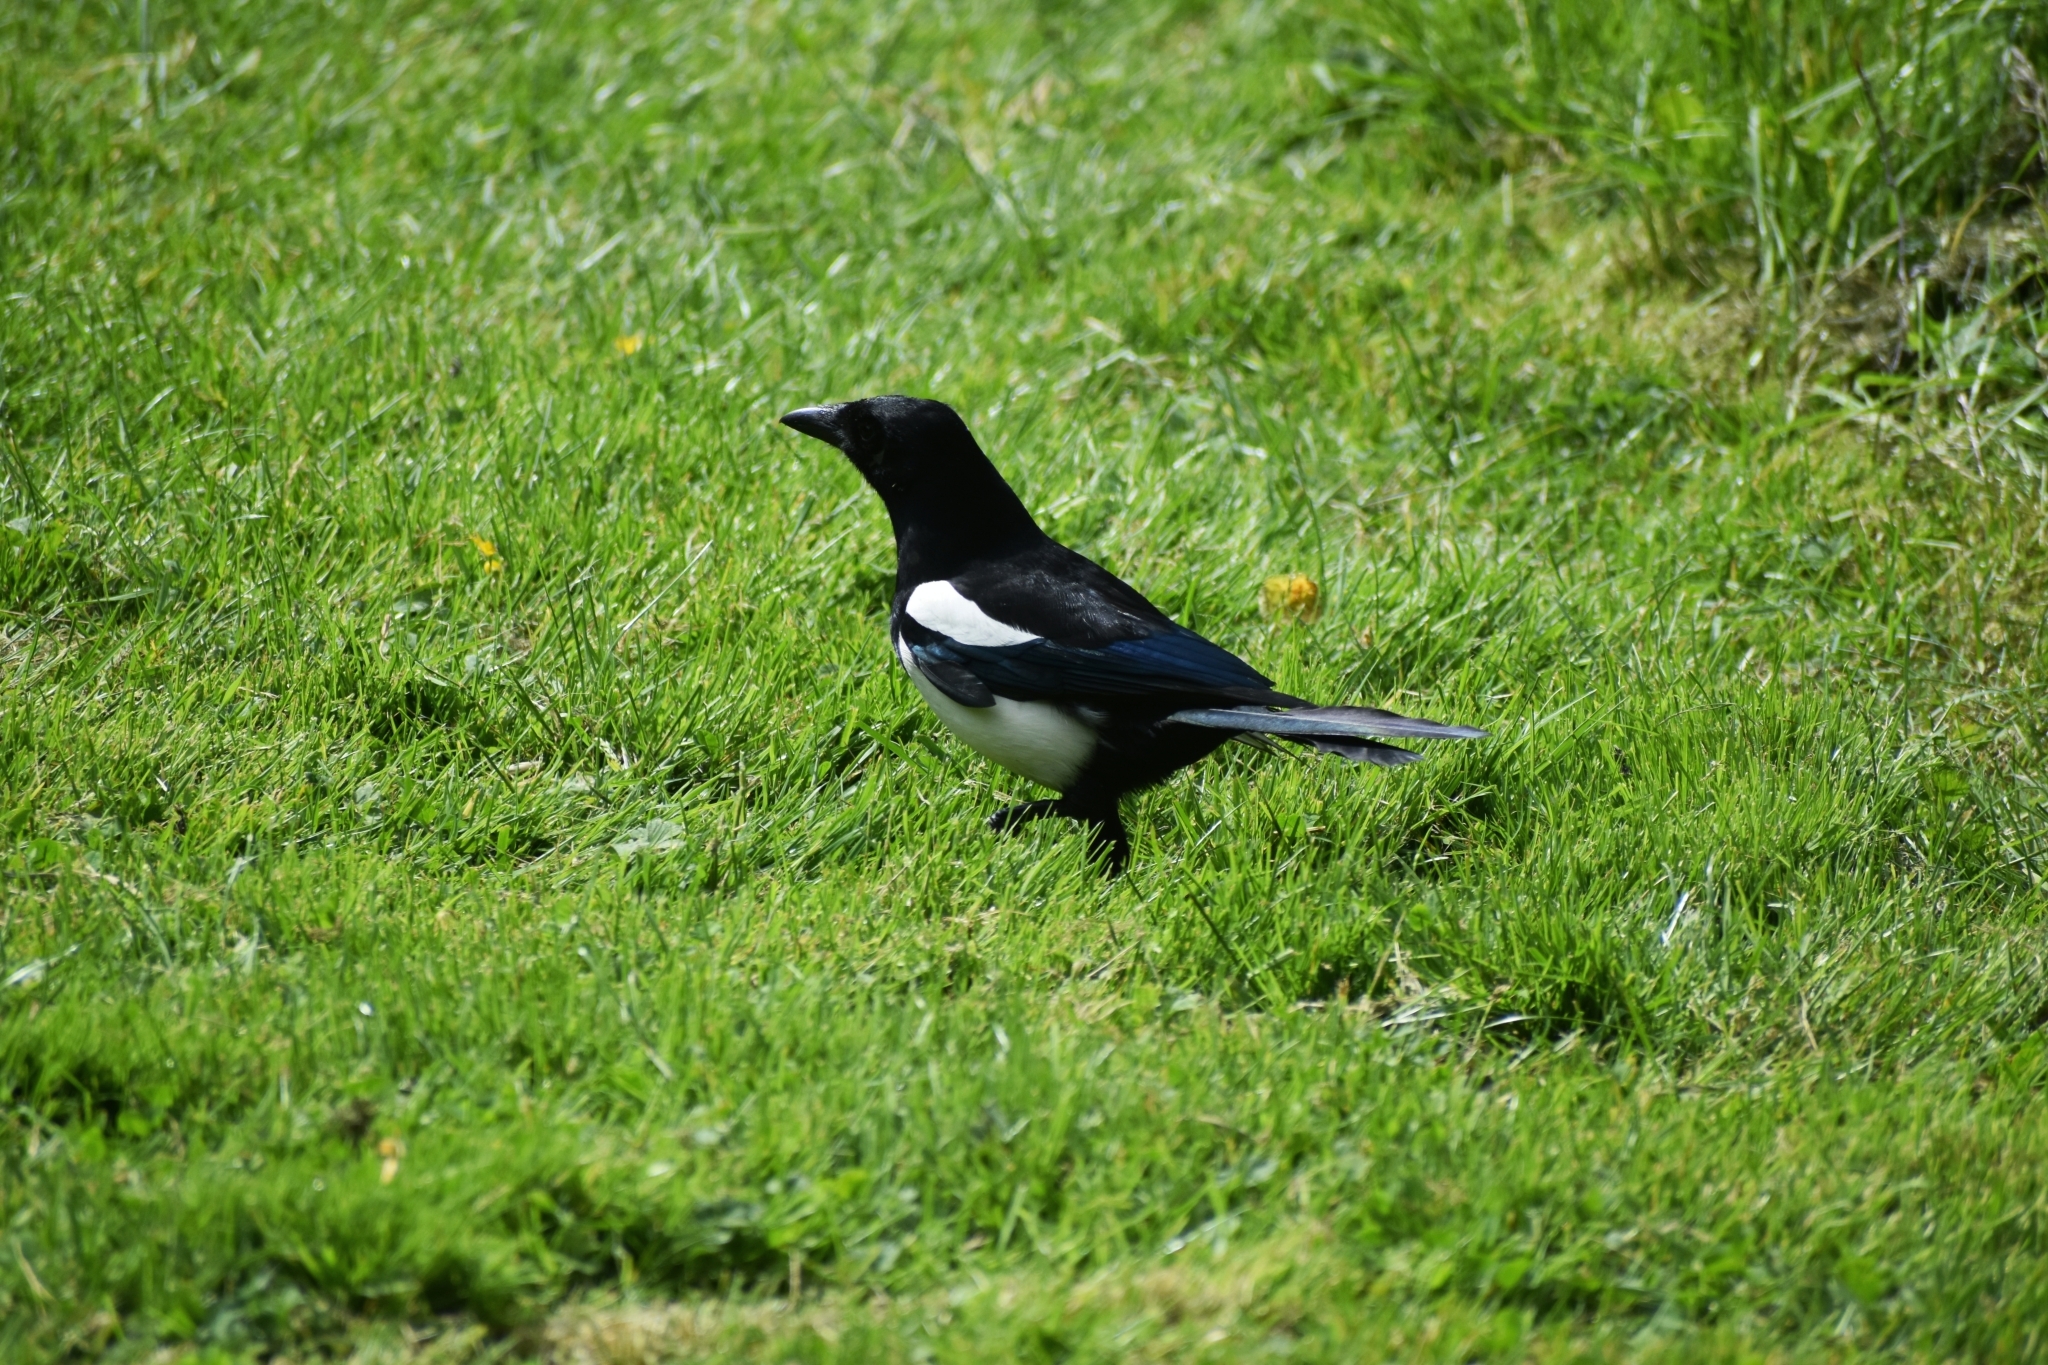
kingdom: Animalia
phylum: Chordata
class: Aves
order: Passeriformes
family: Corvidae
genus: Pica
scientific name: Pica pica
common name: Eurasian magpie
